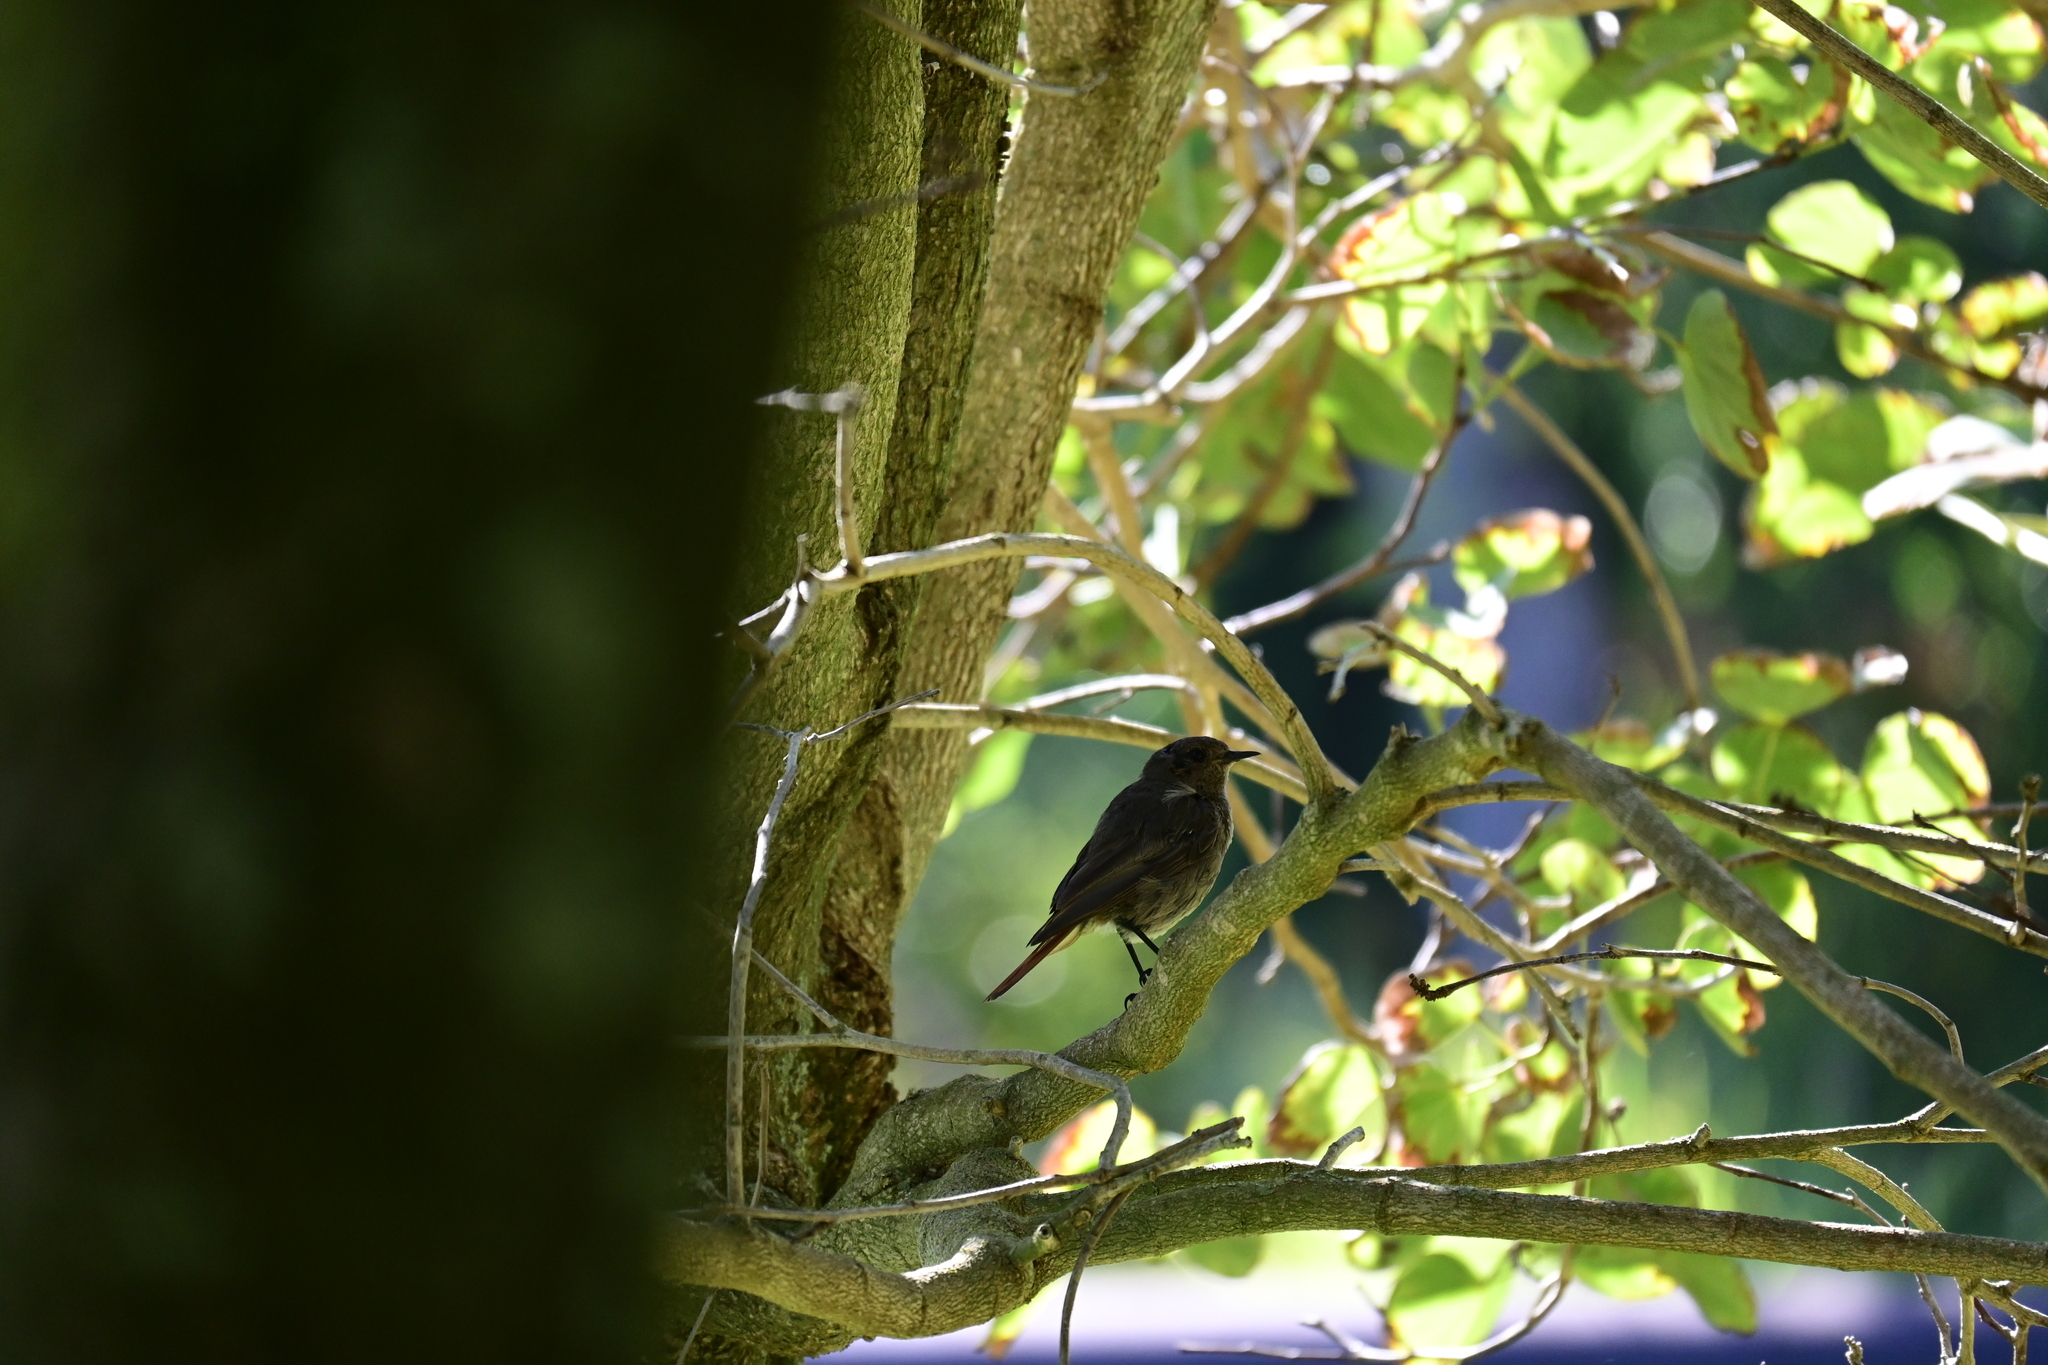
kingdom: Animalia
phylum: Chordata
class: Aves
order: Passeriformes
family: Muscicapidae
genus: Phoenicurus
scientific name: Phoenicurus ochruros
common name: Black redstart
